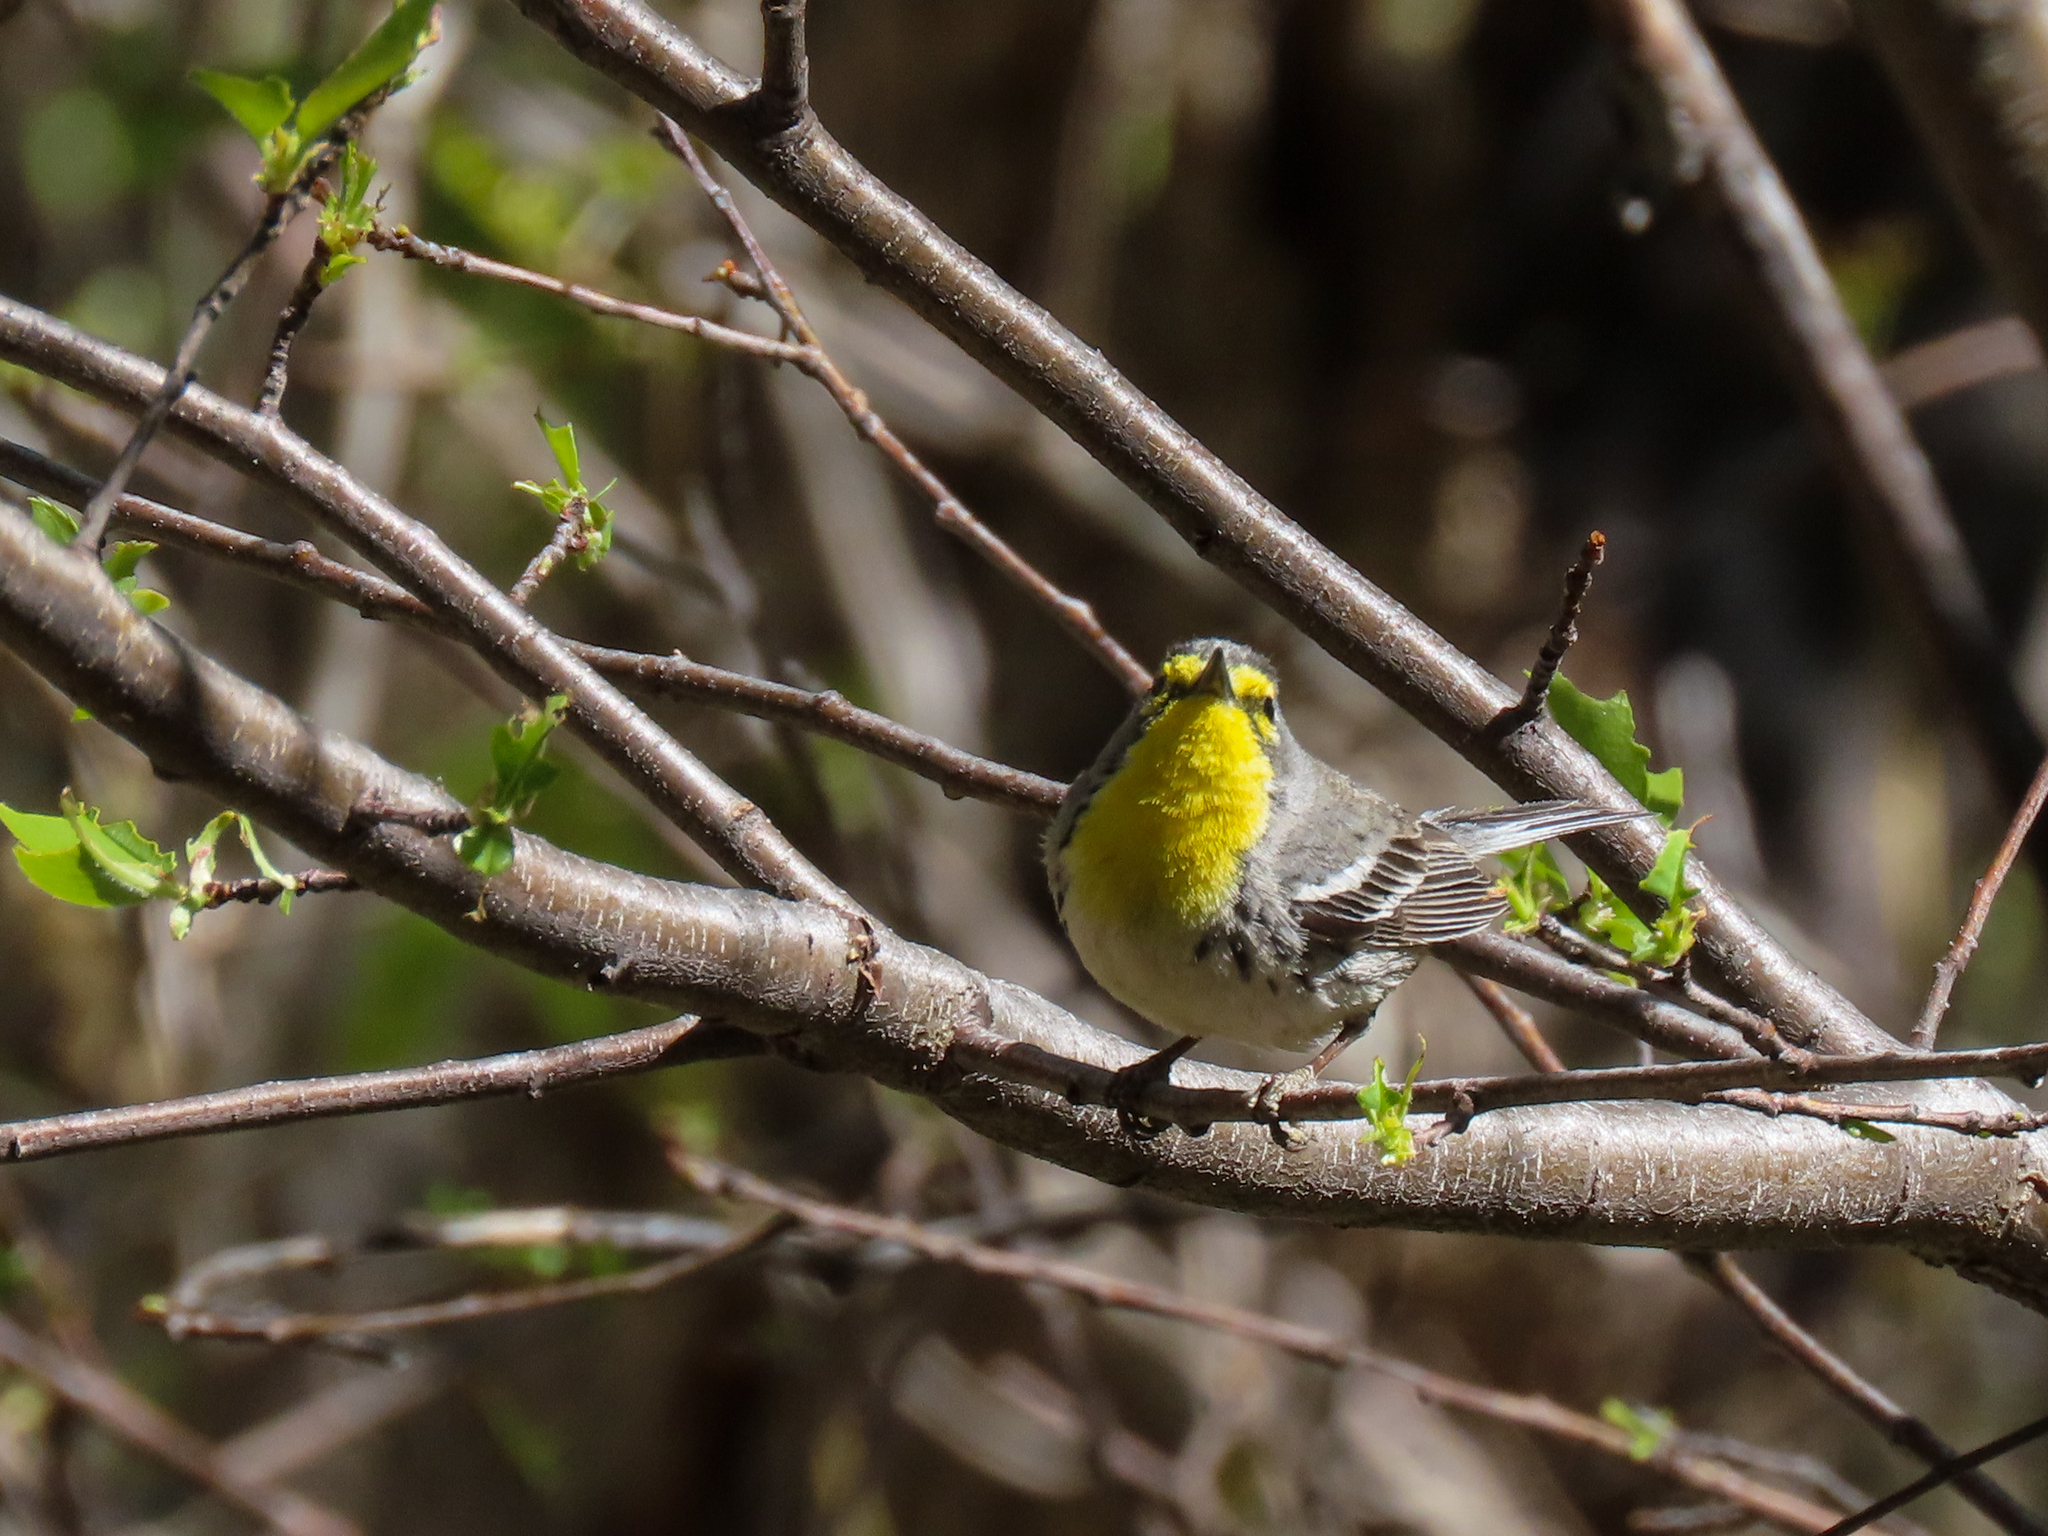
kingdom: Animalia
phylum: Chordata
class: Aves
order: Passeriformes
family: Parulidae
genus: Setophaga
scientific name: Setophaga graciae
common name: Grace's warbler
